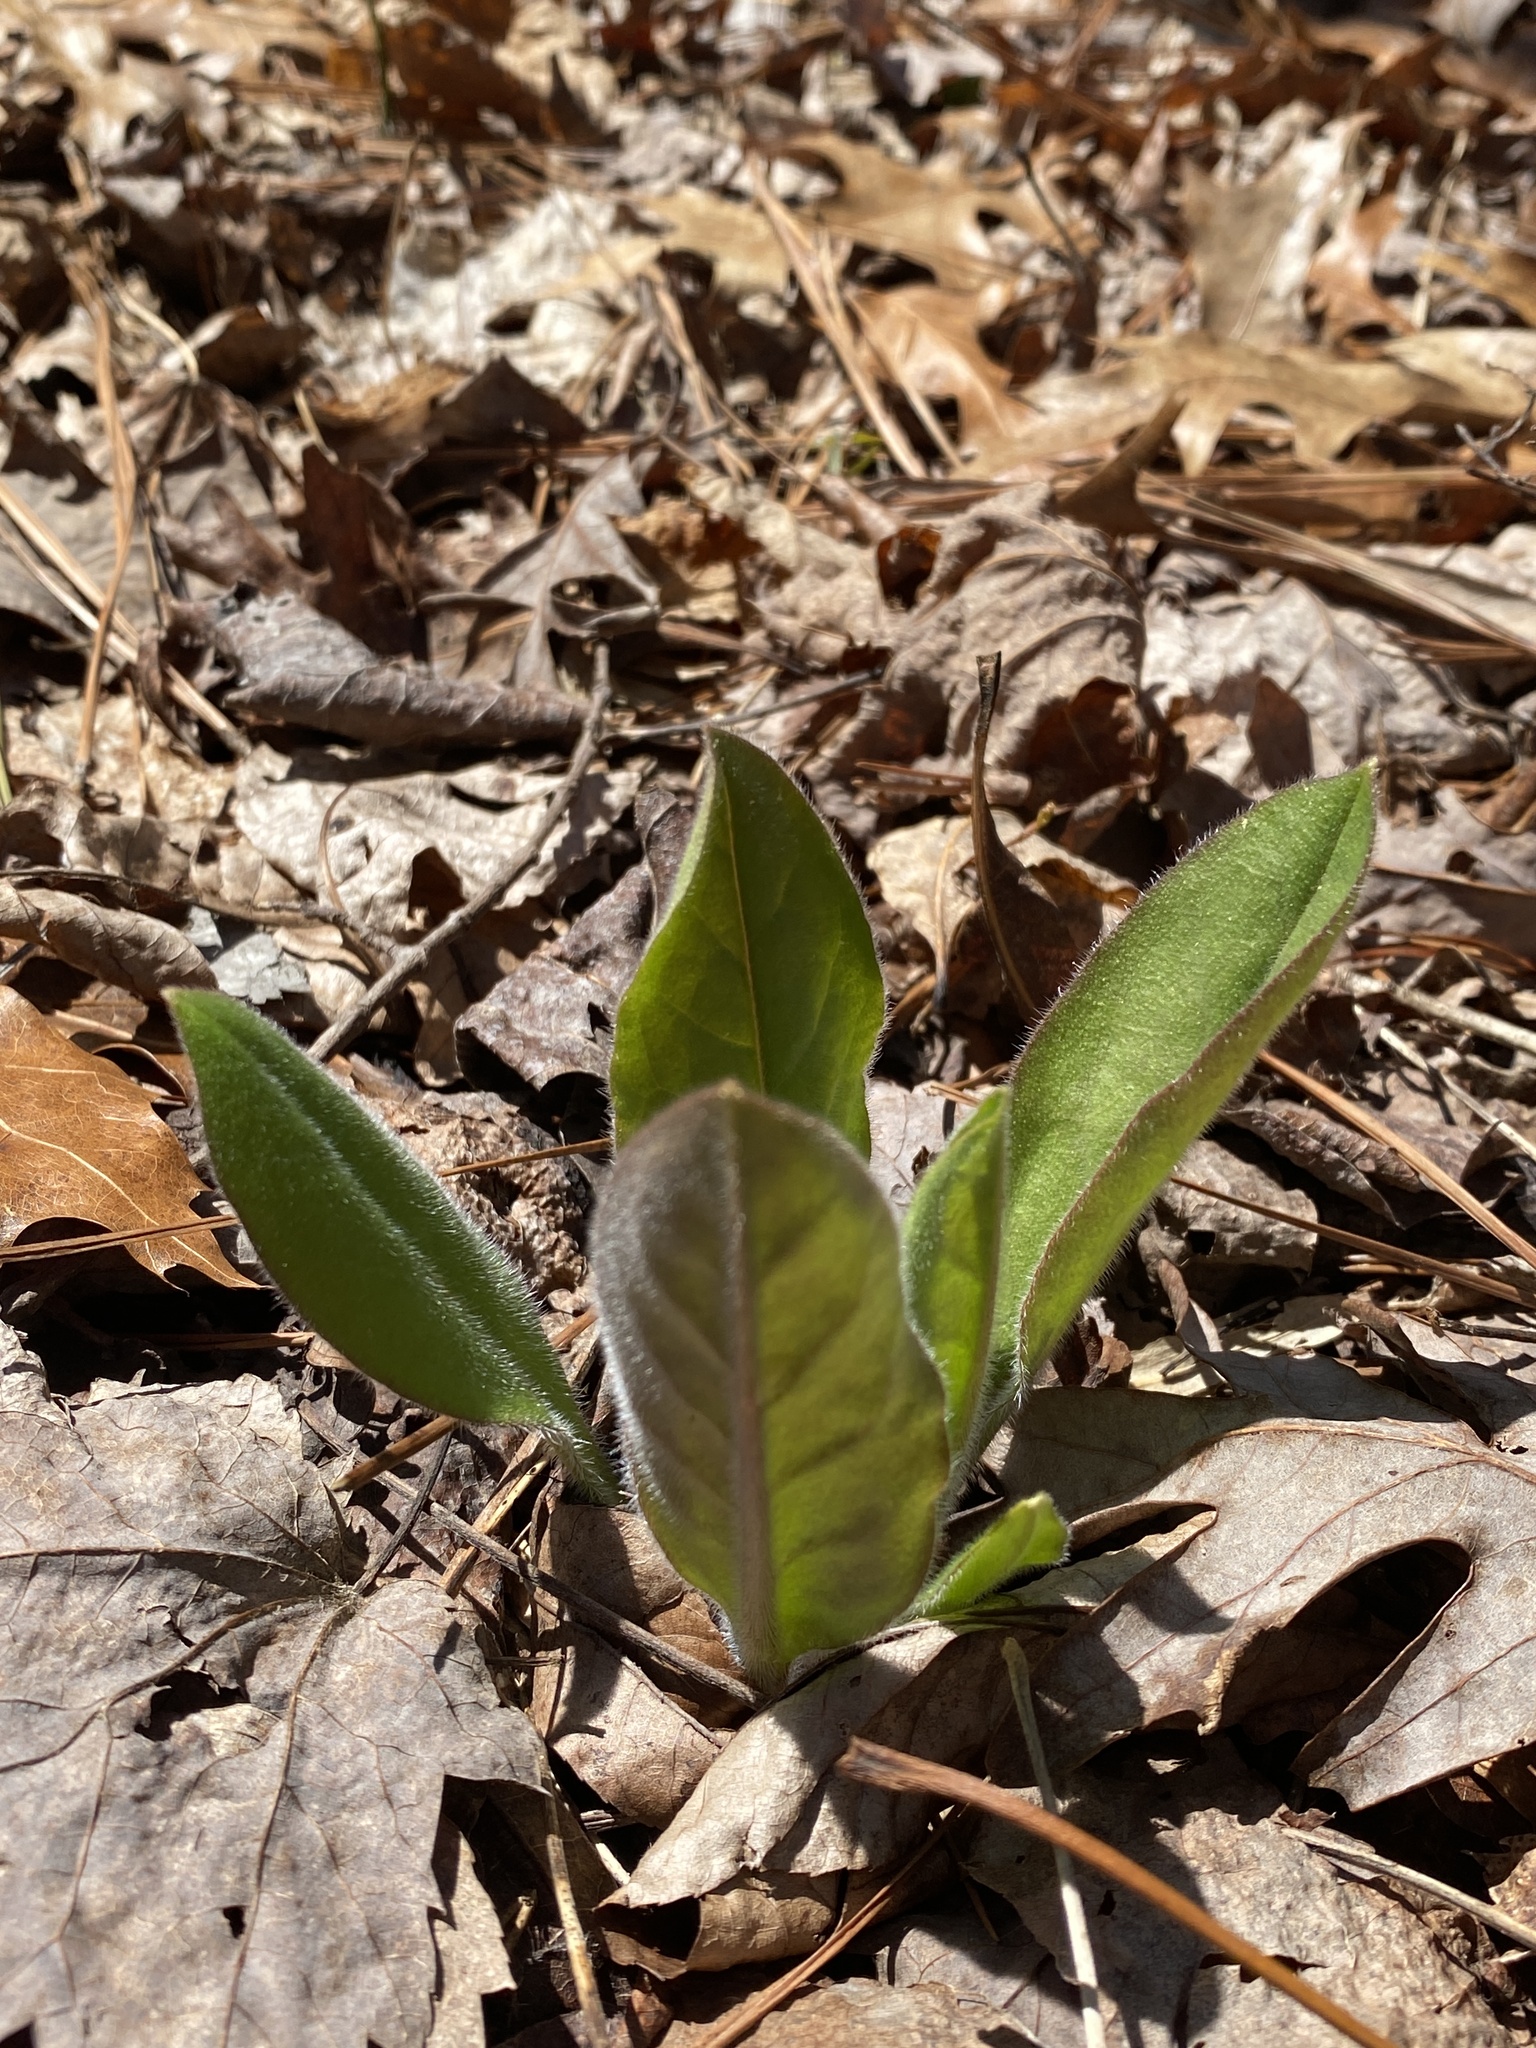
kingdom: Plantae
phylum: Tracheophyta
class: Magnoliopsida
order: Boraginales
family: Boraginaceae
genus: Andersonglossum
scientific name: Andersonglossum virginianum
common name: Wild comfrey
